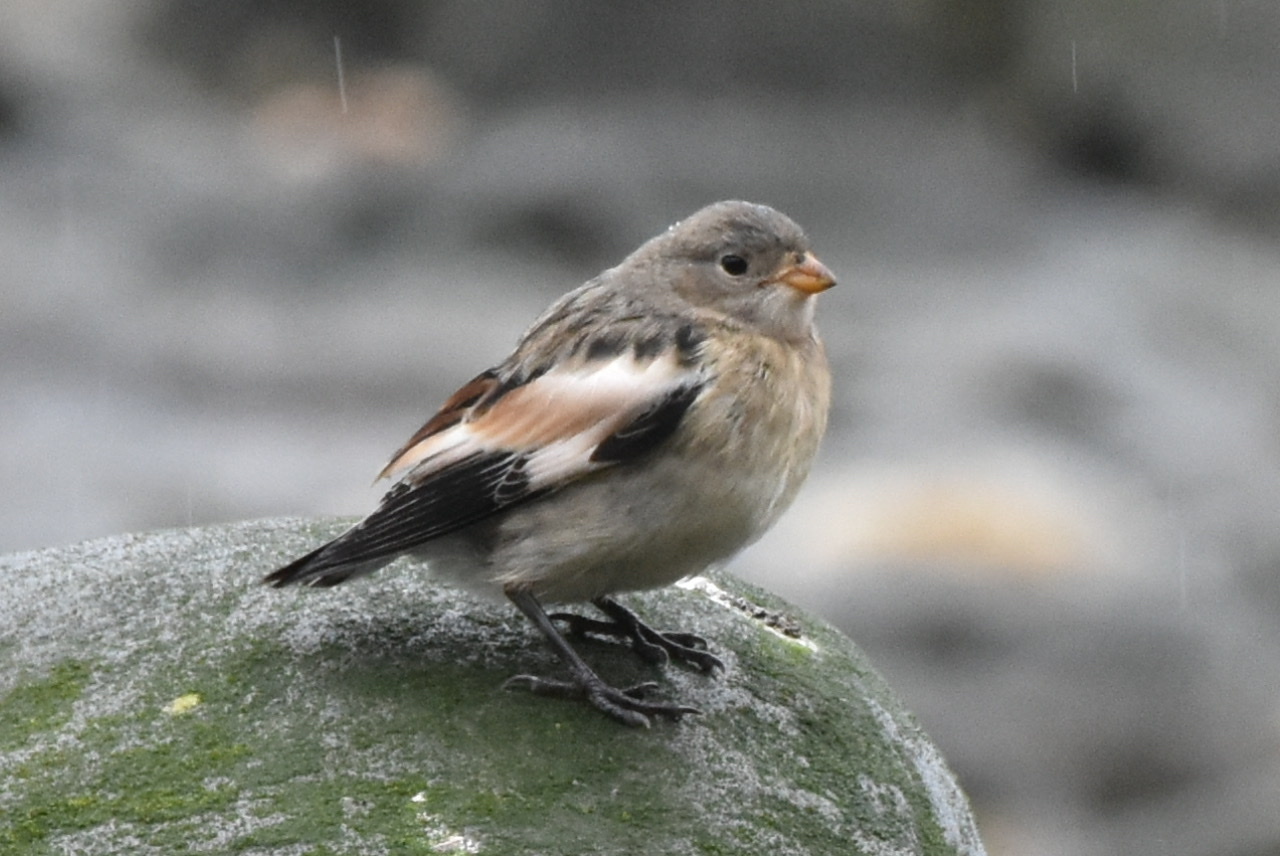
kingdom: Animalia
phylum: Chordata
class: Aves
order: Passeriformes
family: Calcariidae
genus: Plectrophenax
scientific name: Plectrophenax nivalis
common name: Snow bunting
